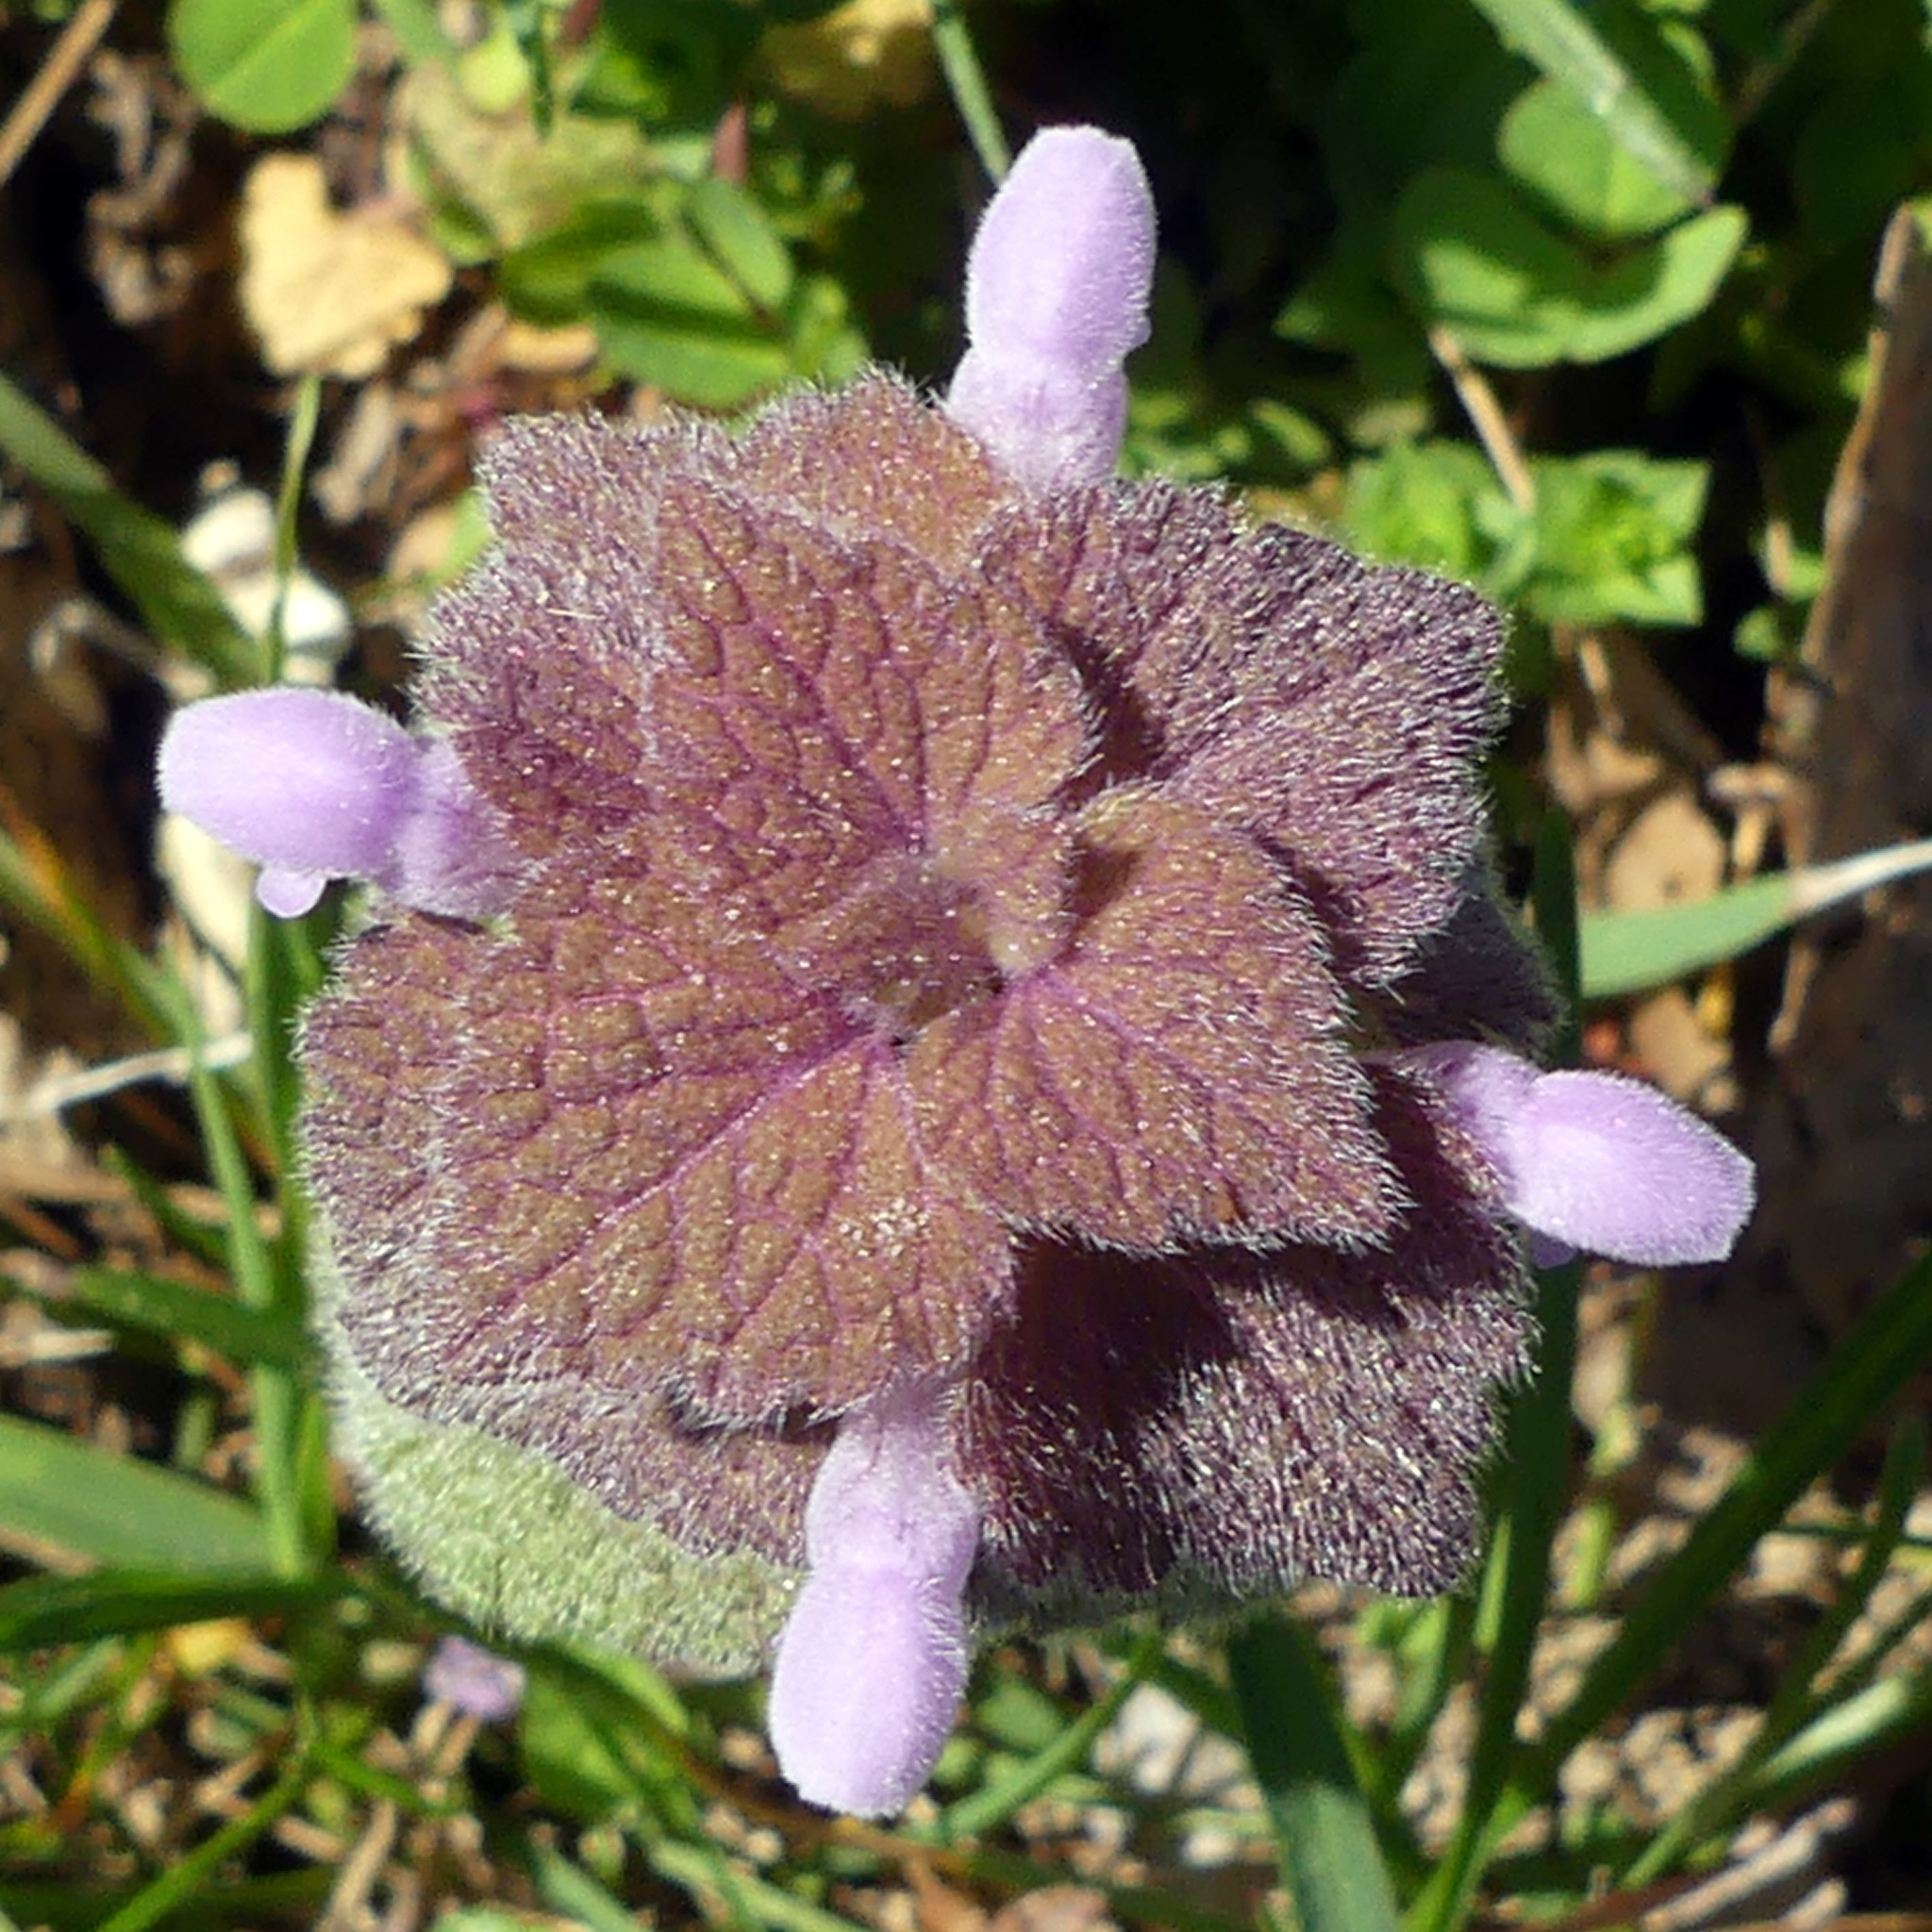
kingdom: Plantae
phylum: Tracheophyta
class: Magnoliopsida
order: Lamiales
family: Lamiaceae
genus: Lamium
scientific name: Lamium purpureum
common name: Red dead-nettle
